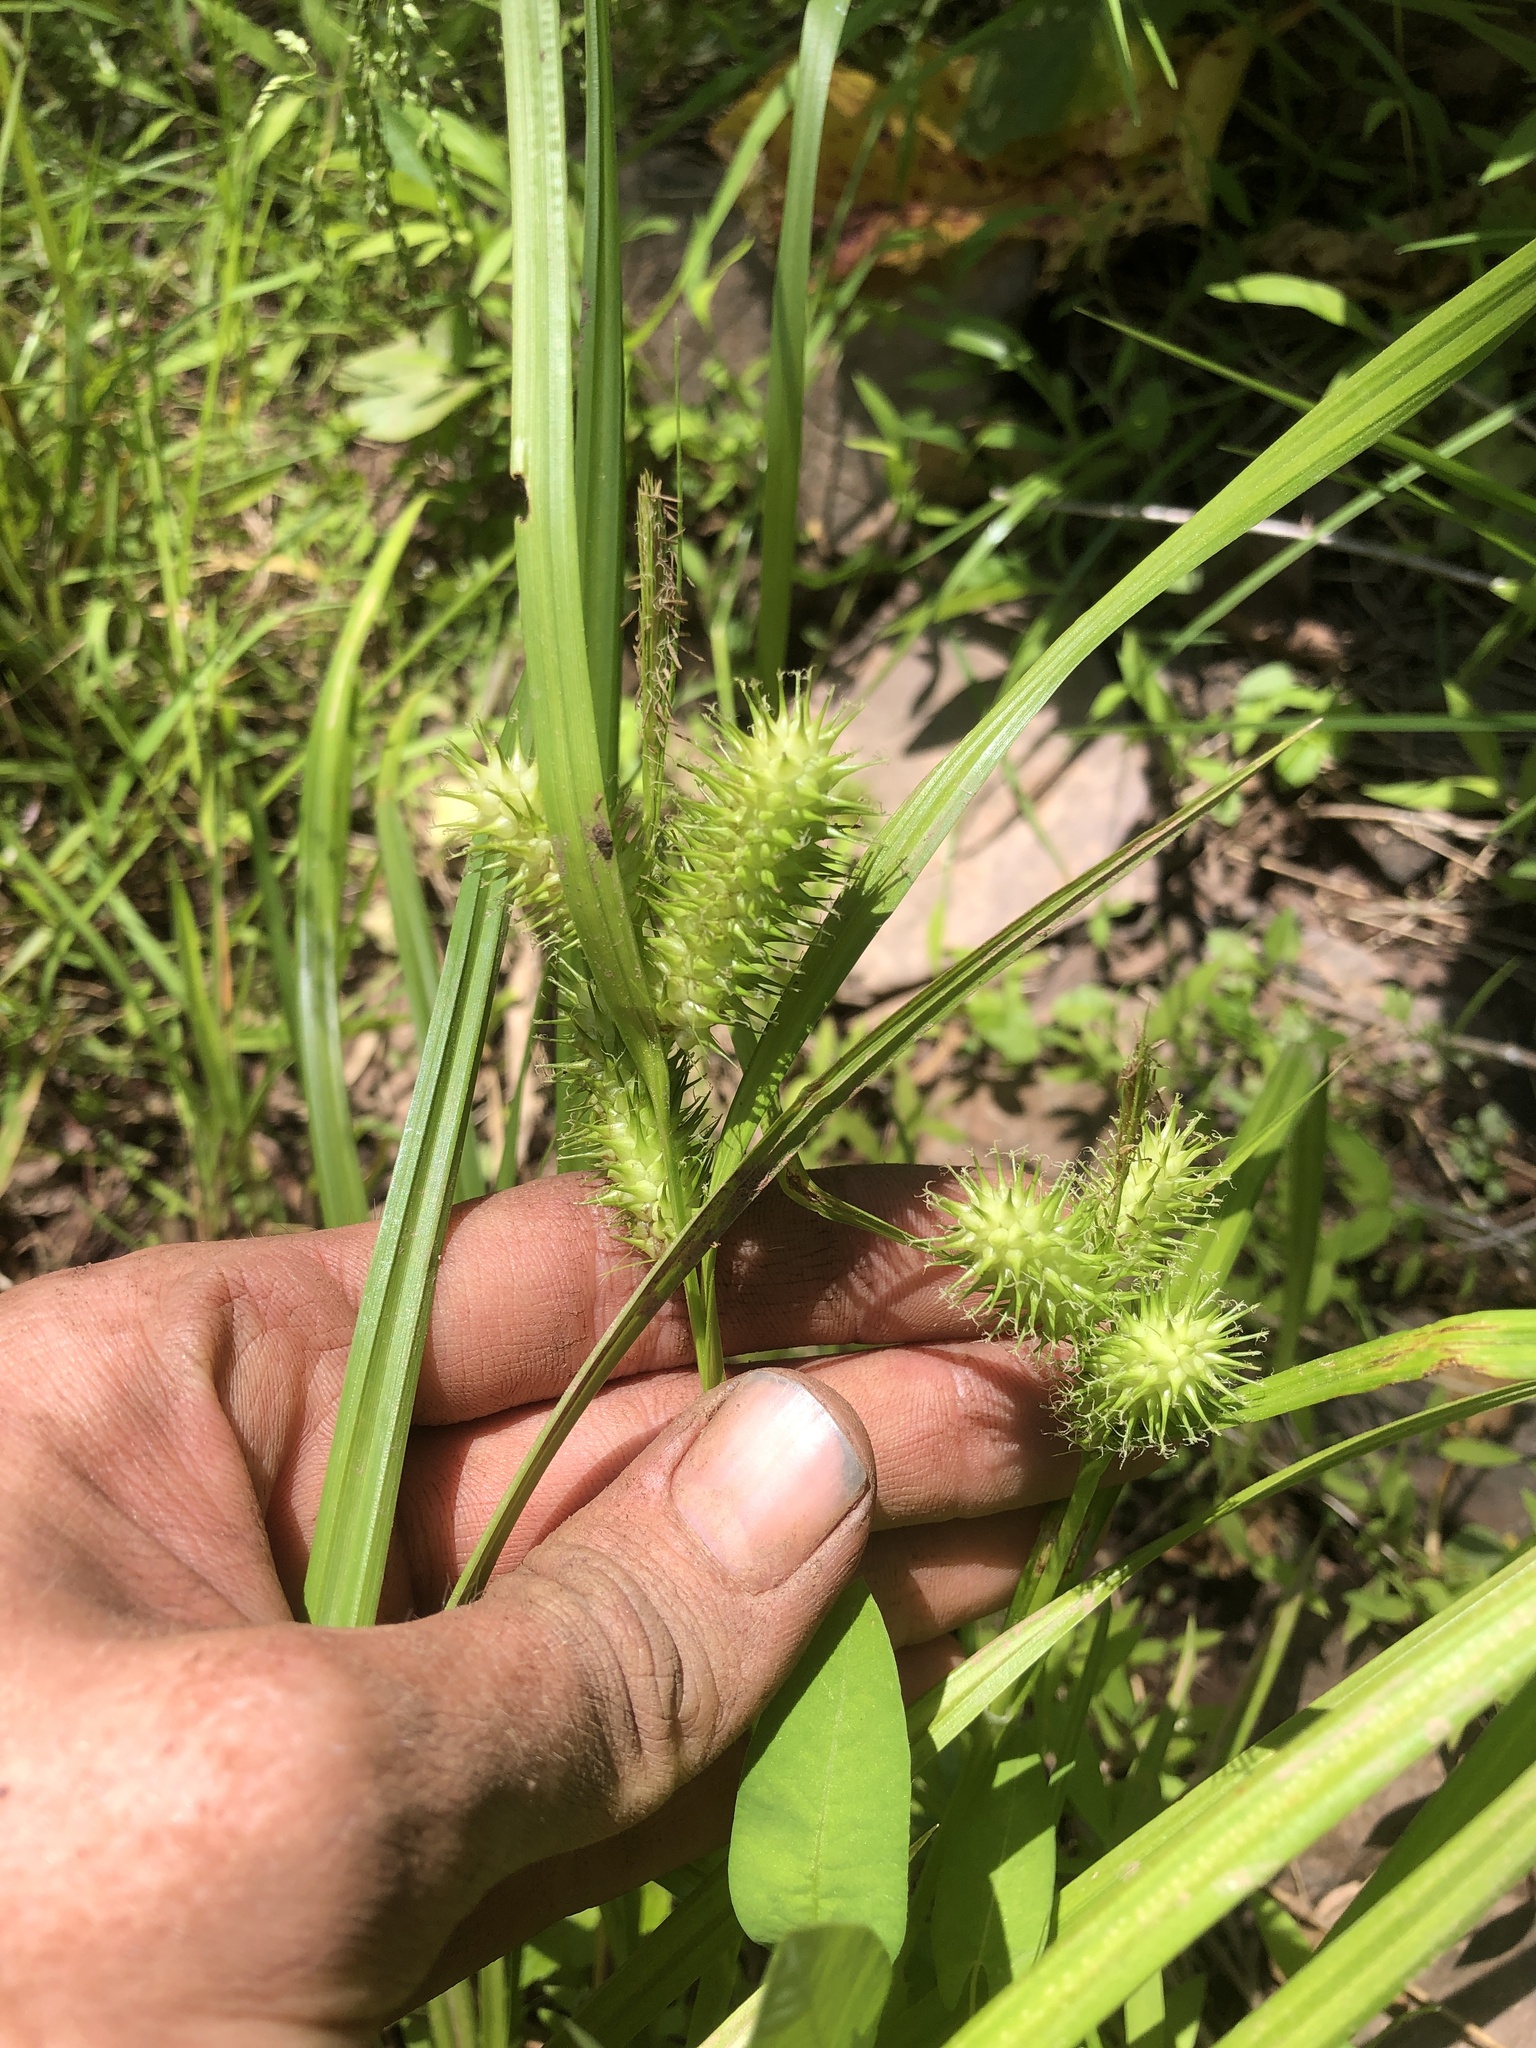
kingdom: Plantae
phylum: Tracheophyta
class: Liliopsida
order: Poales
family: Cyperaceae
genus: Carex
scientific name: Carex lurida
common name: Sallow sedge
